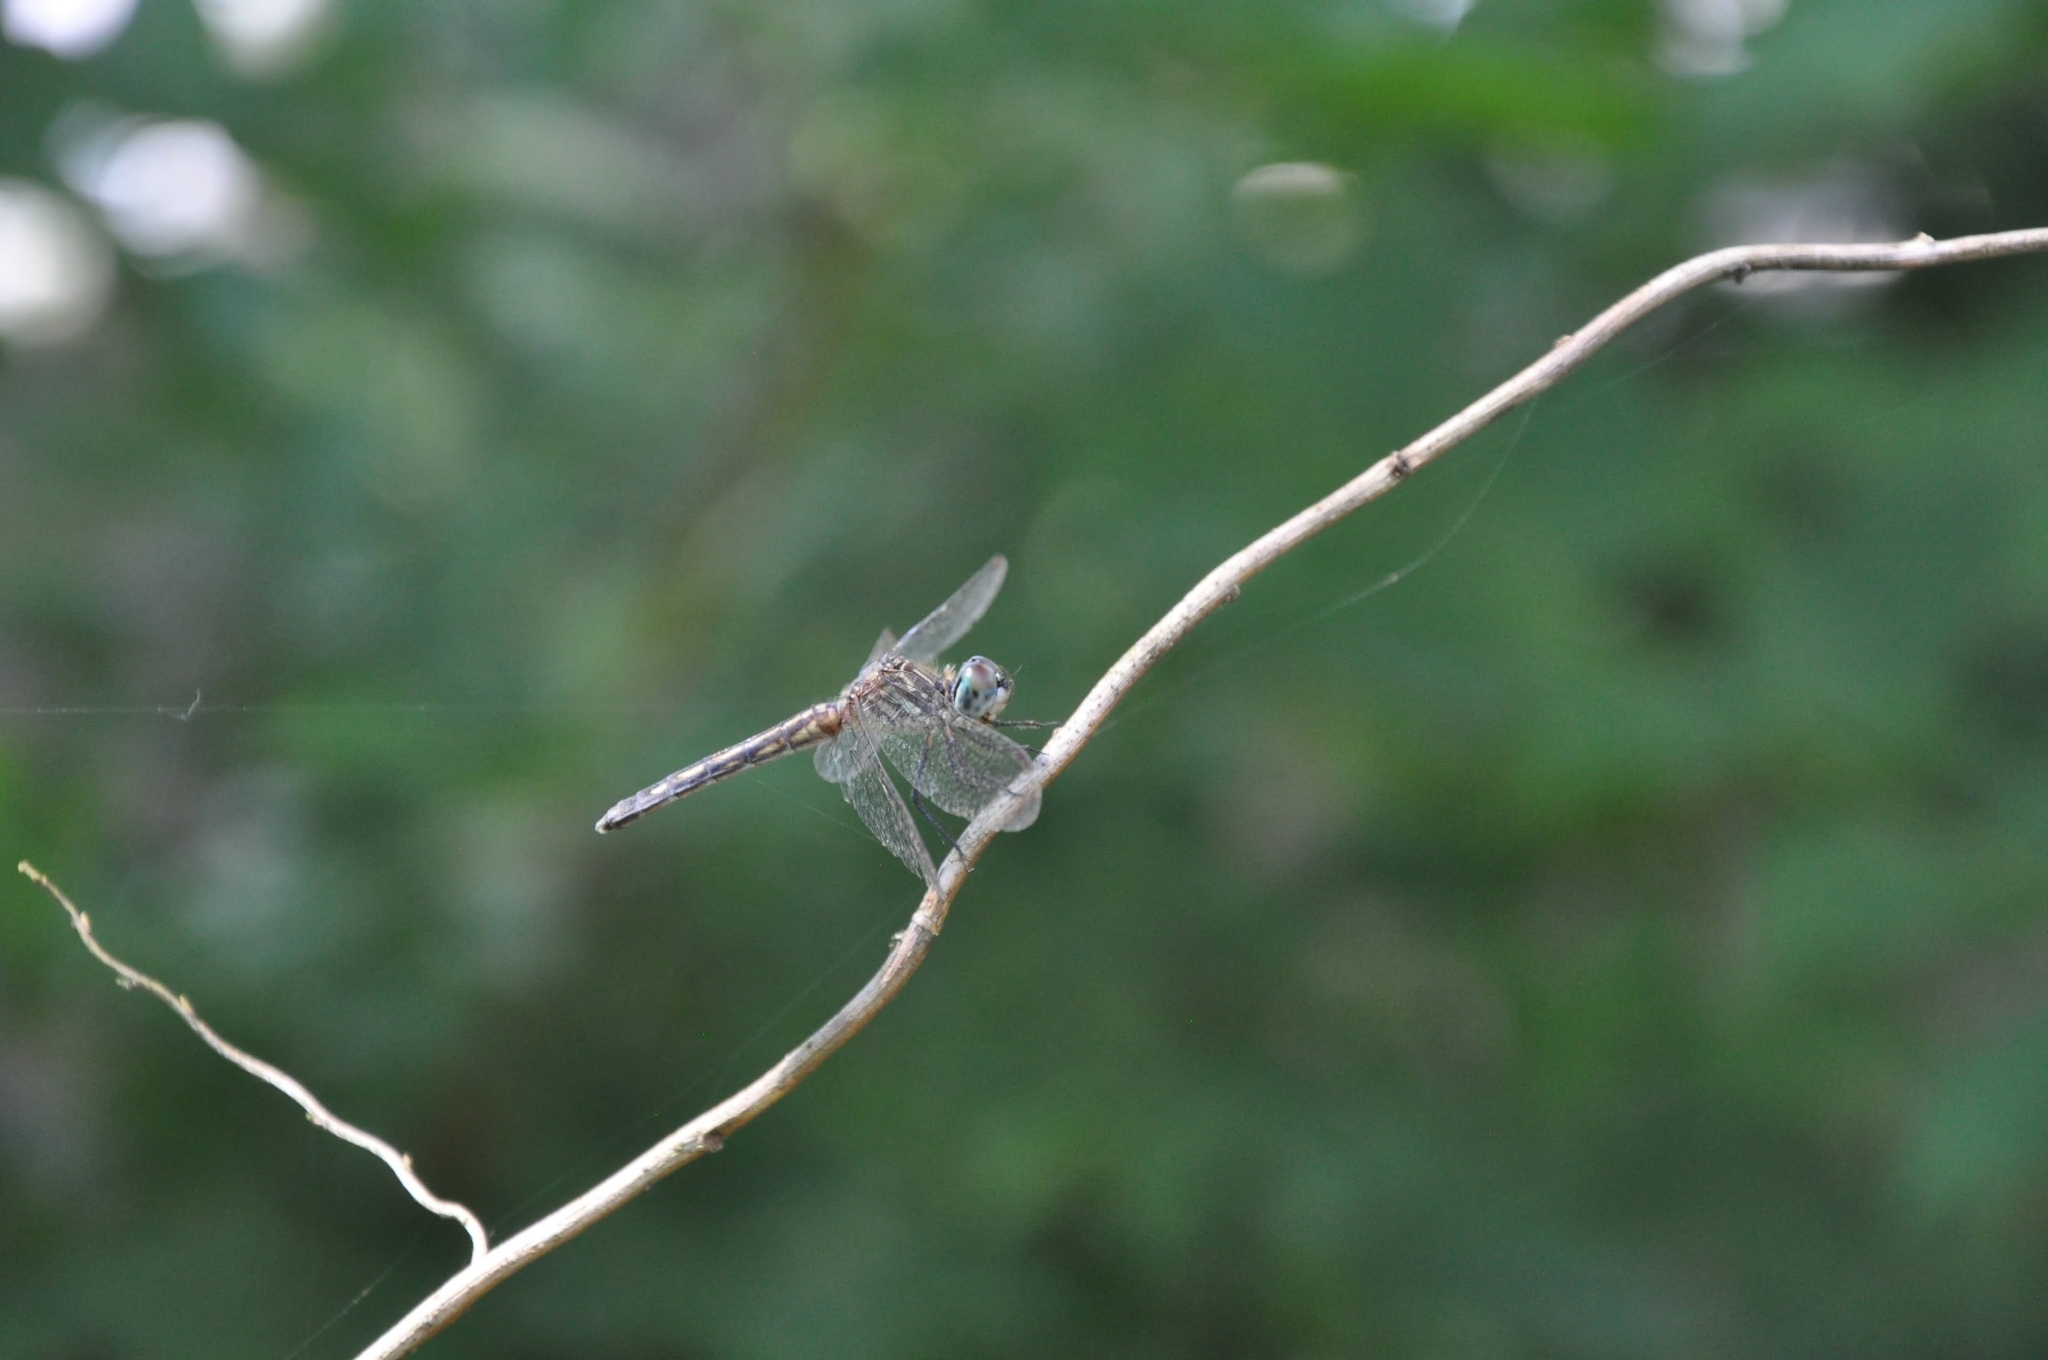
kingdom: Animalia
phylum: Arthropoda
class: Insecta
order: Odonata
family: Libellulidae
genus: Pachydiplax
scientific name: Pachydiplax longipennis
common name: Blue dasher
